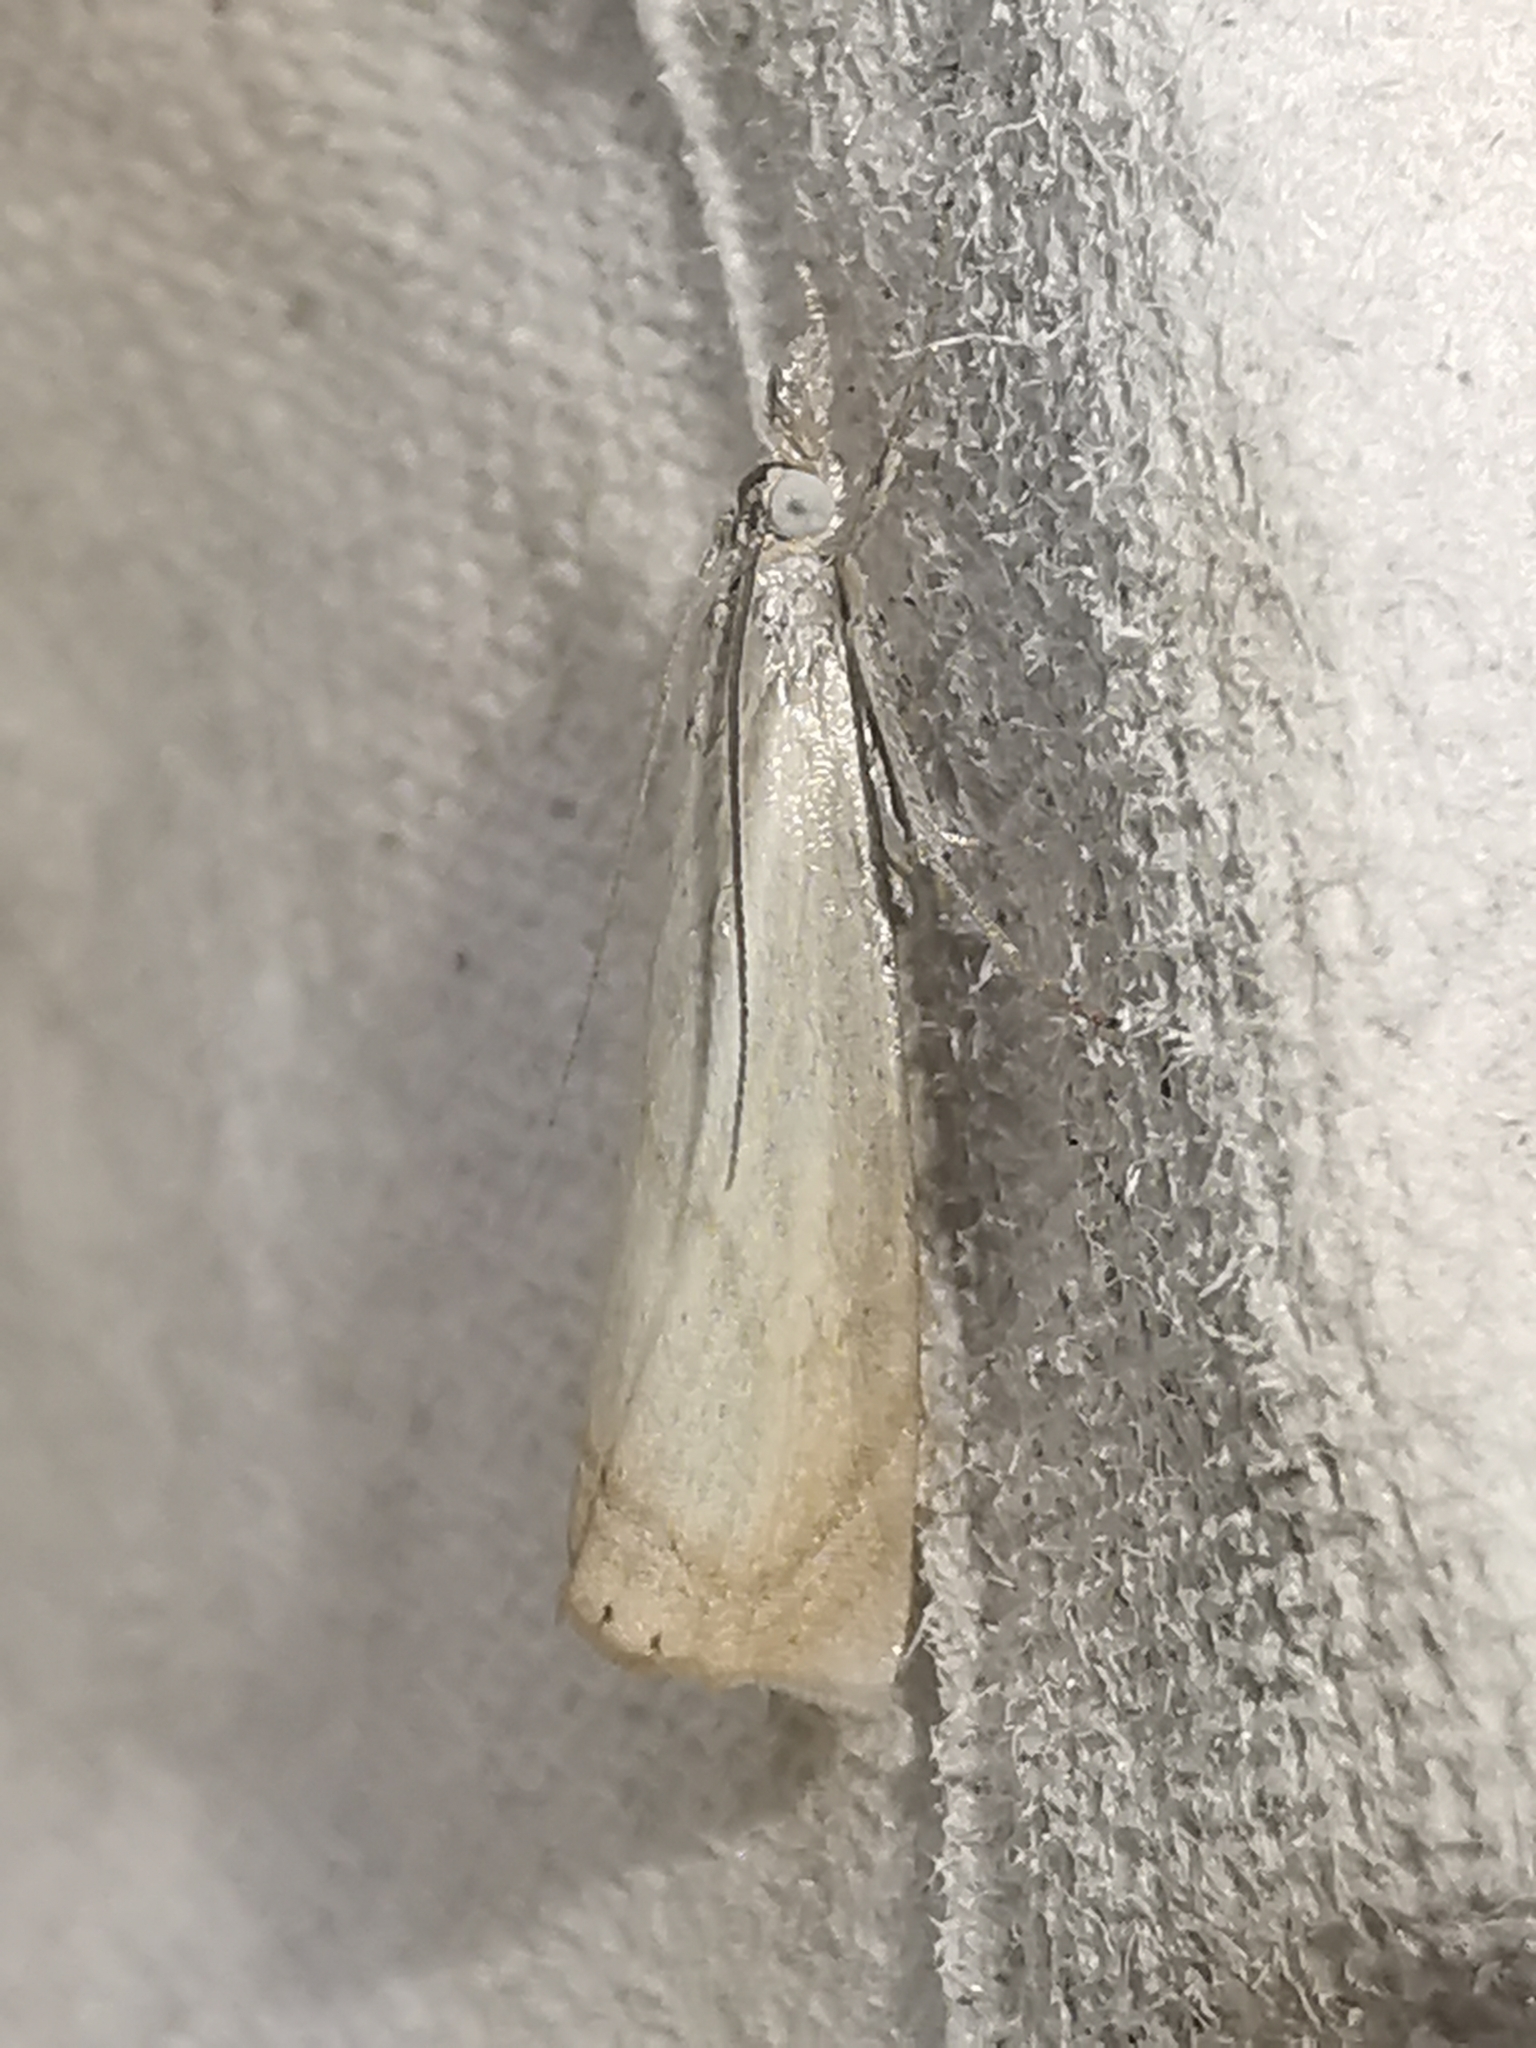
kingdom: Animalia
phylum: Arthropoda
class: Insecta
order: Lepidoptera
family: Crambidae
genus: Chrysoteuchia
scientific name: Chrysoteuchia culmella
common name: Garden grass-veneer
